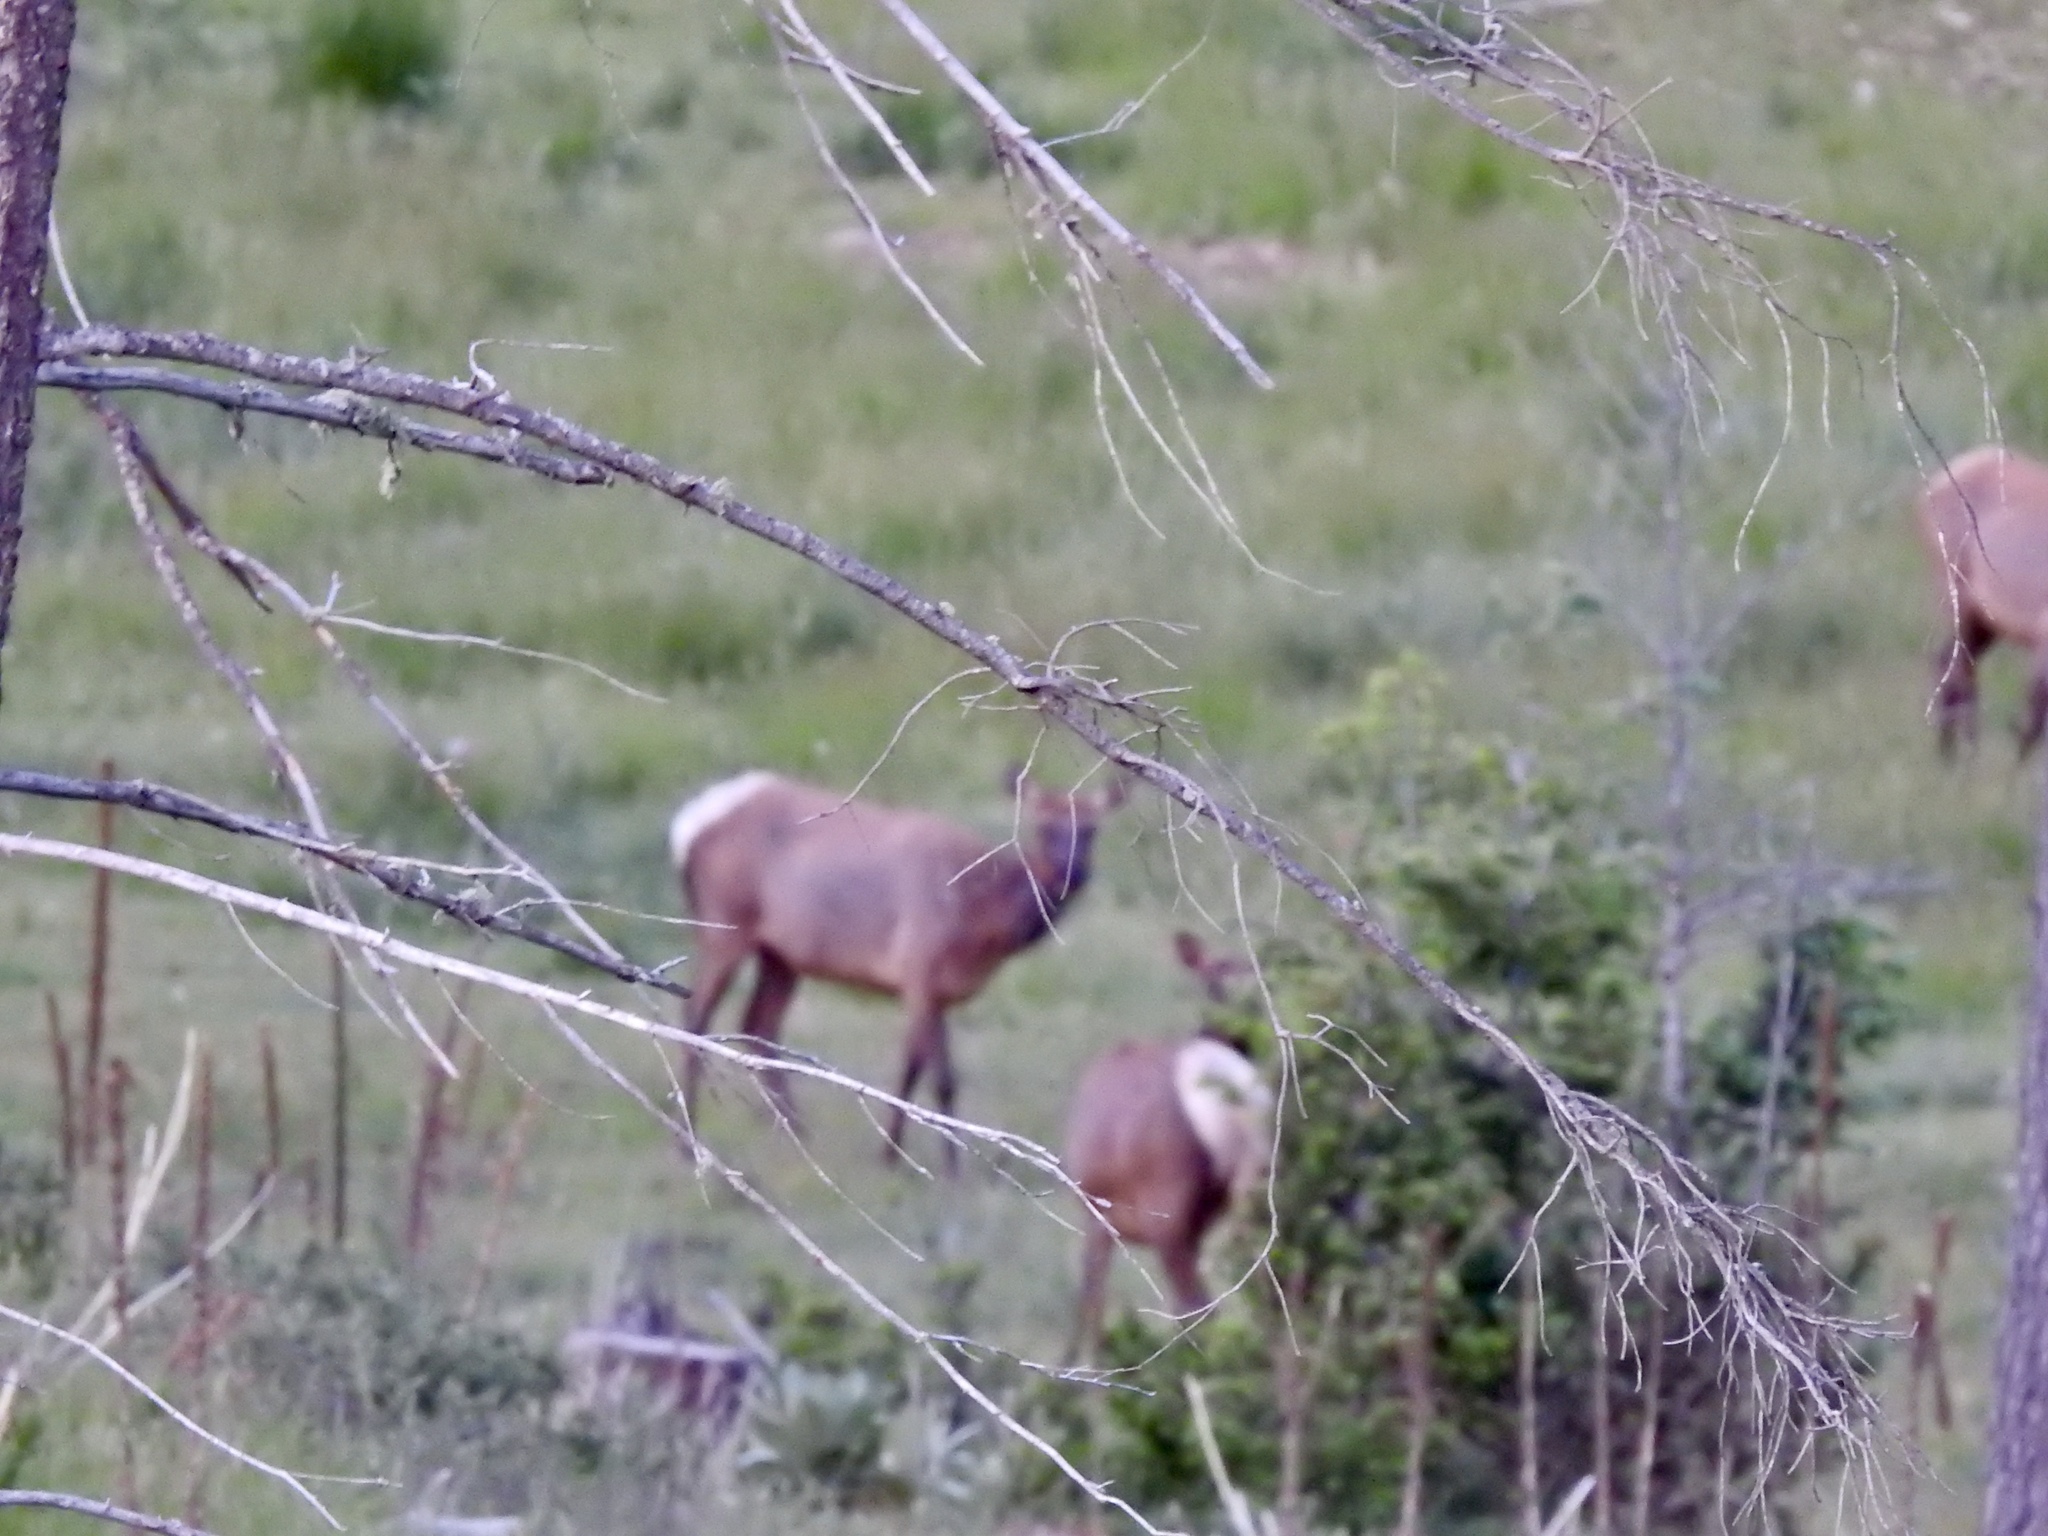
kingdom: Animalia
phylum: Chordata
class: Mammalia
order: Artiodactyla
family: Cervidae
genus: Cervus
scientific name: Cervus elaphus
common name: Red deer
